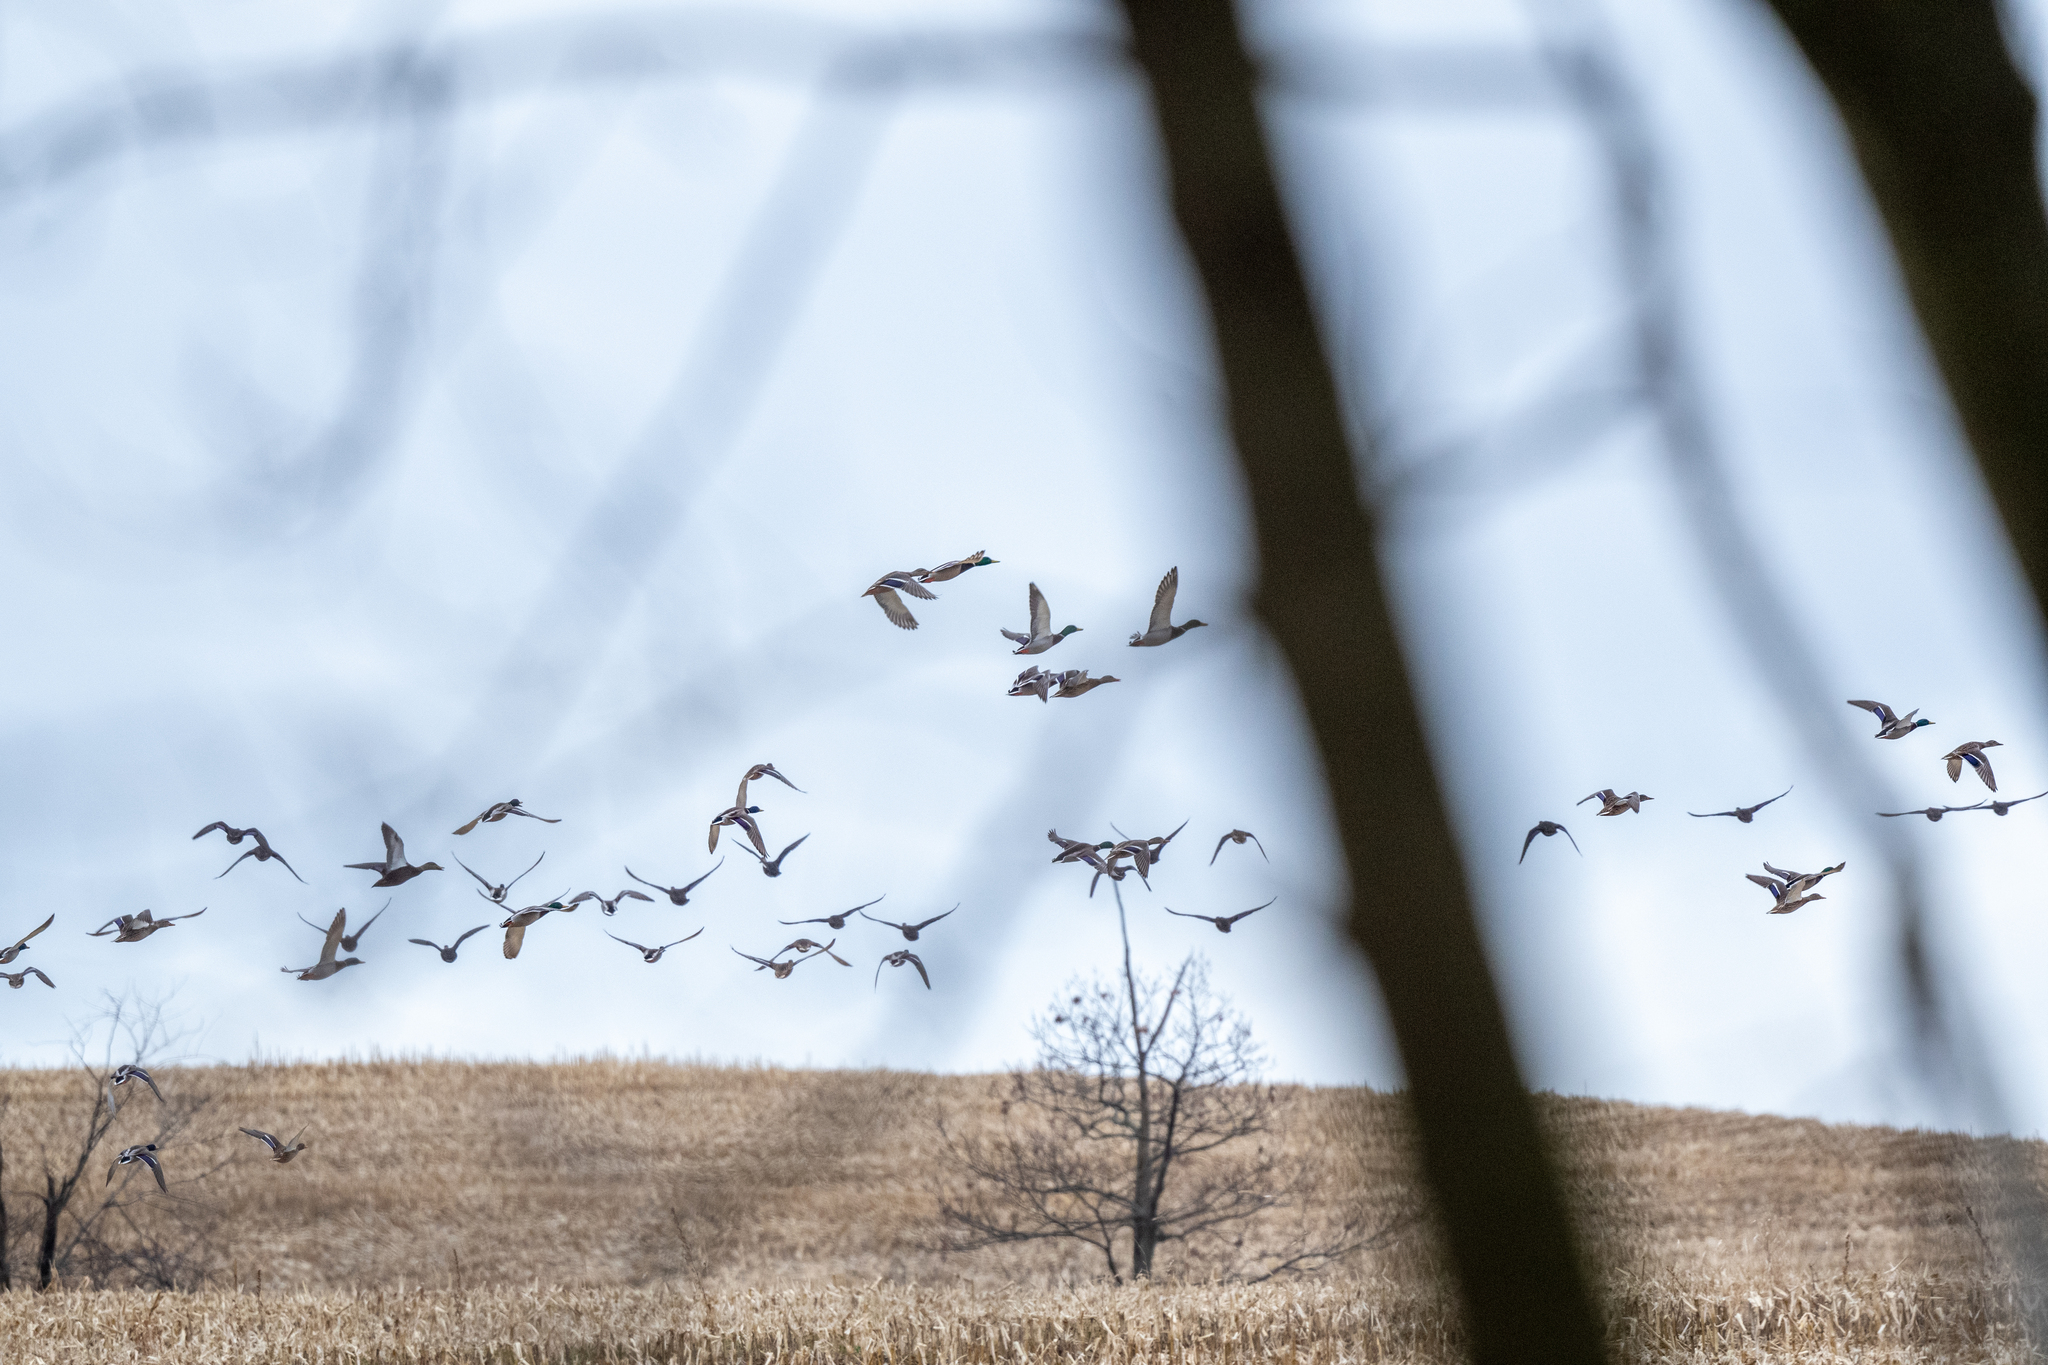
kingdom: Animalia
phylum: Chordata
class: Aves
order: Anseriformes
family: Anatidae
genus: Anas
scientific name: Anas platyrhynchos
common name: Mallard
